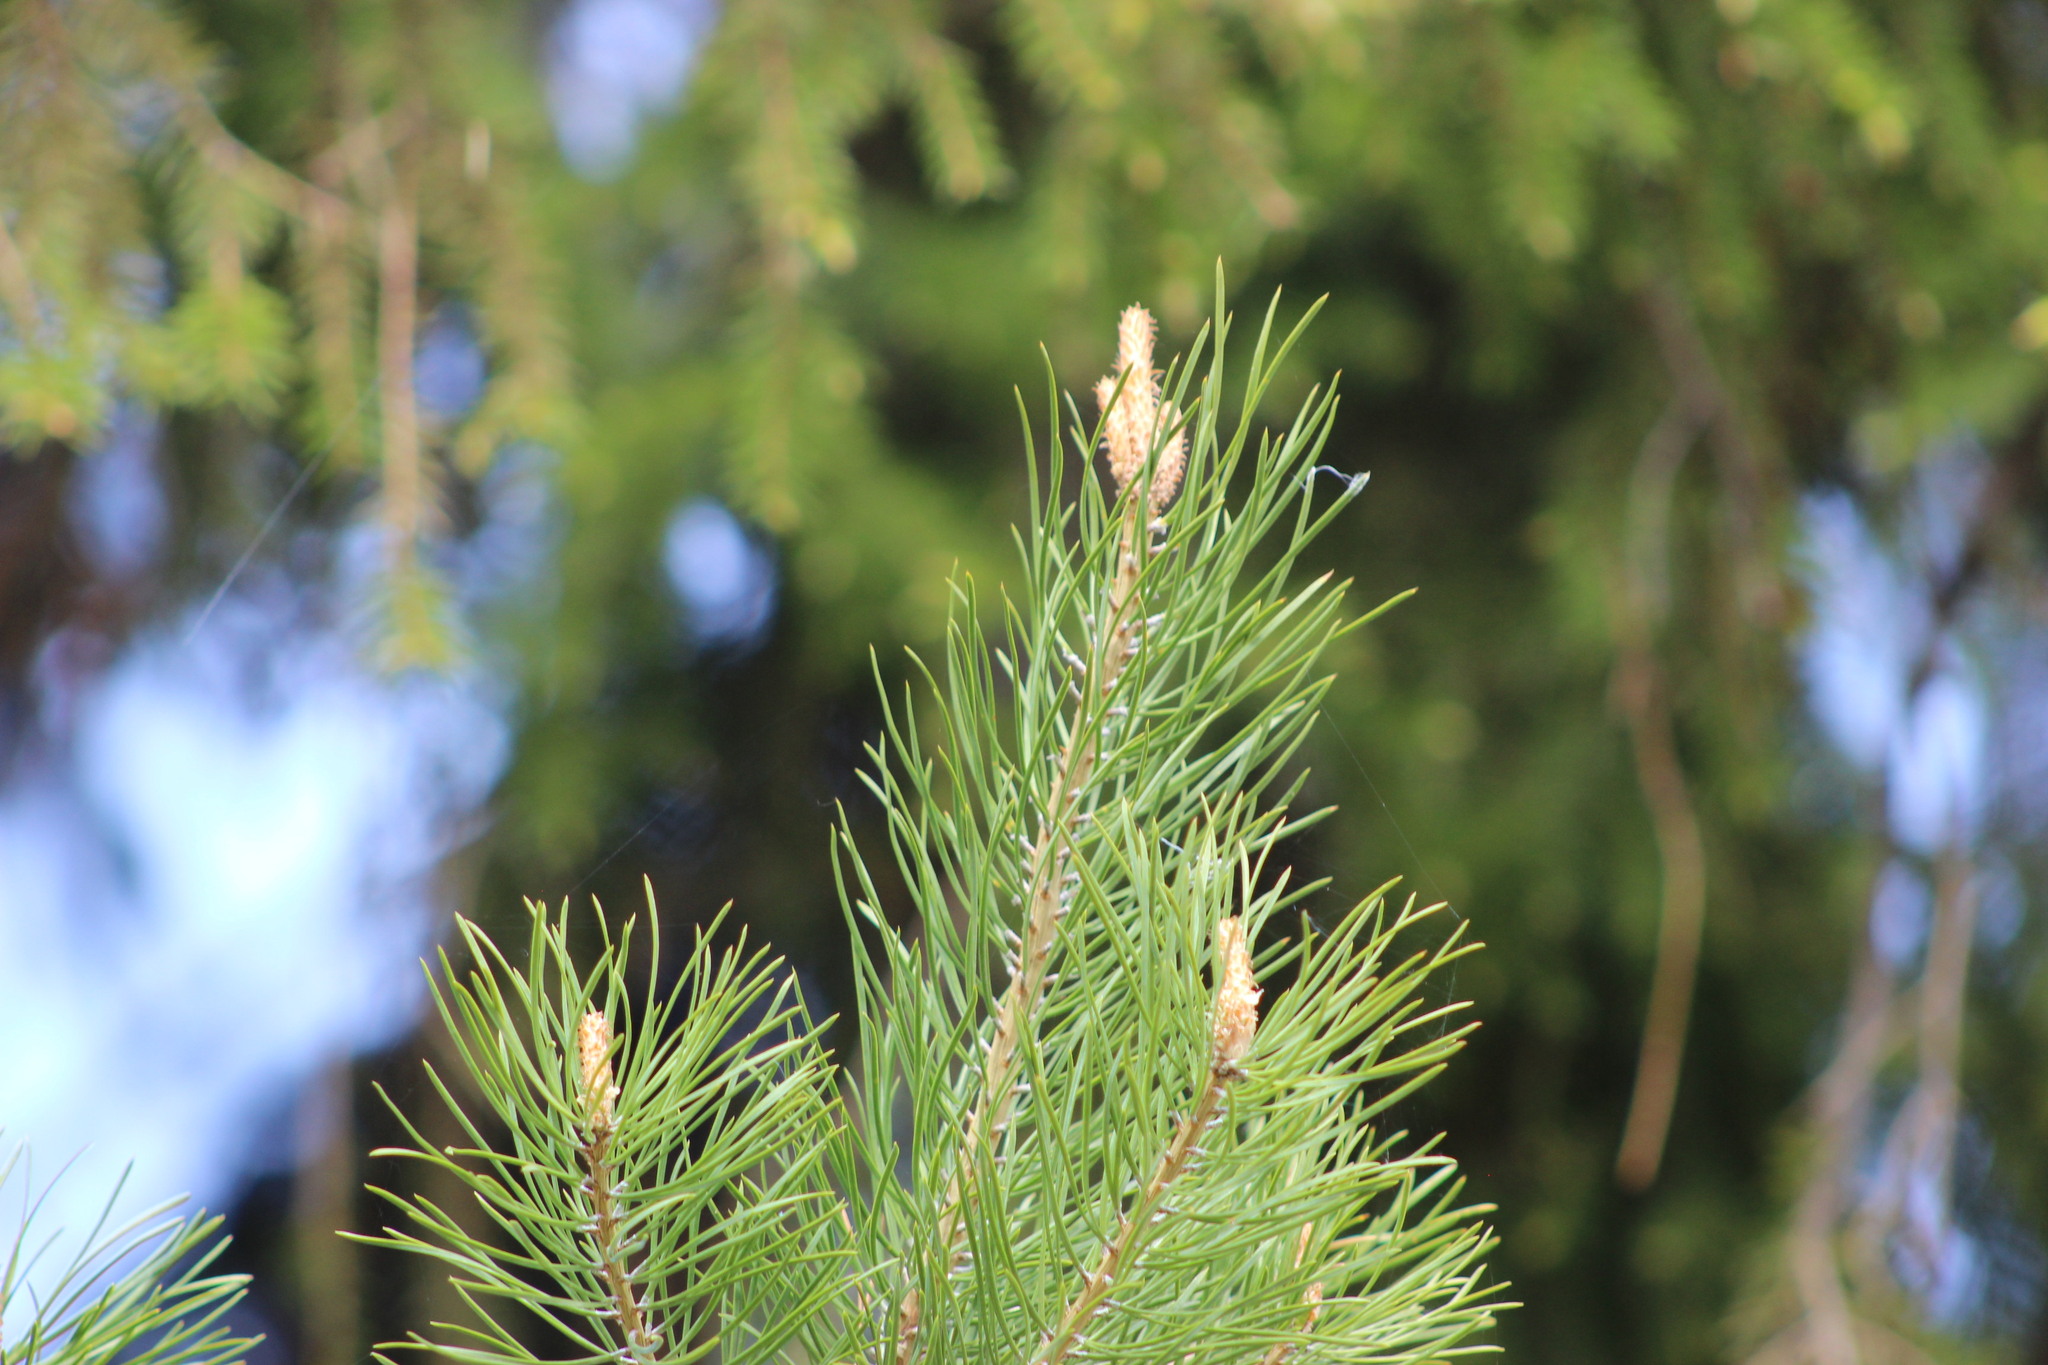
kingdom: Plantae
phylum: Tracheophyta
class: Pinopsida
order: Pinales
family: Pinaceae
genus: Pinus
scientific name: Pinus sylvestris
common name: Scots pine
